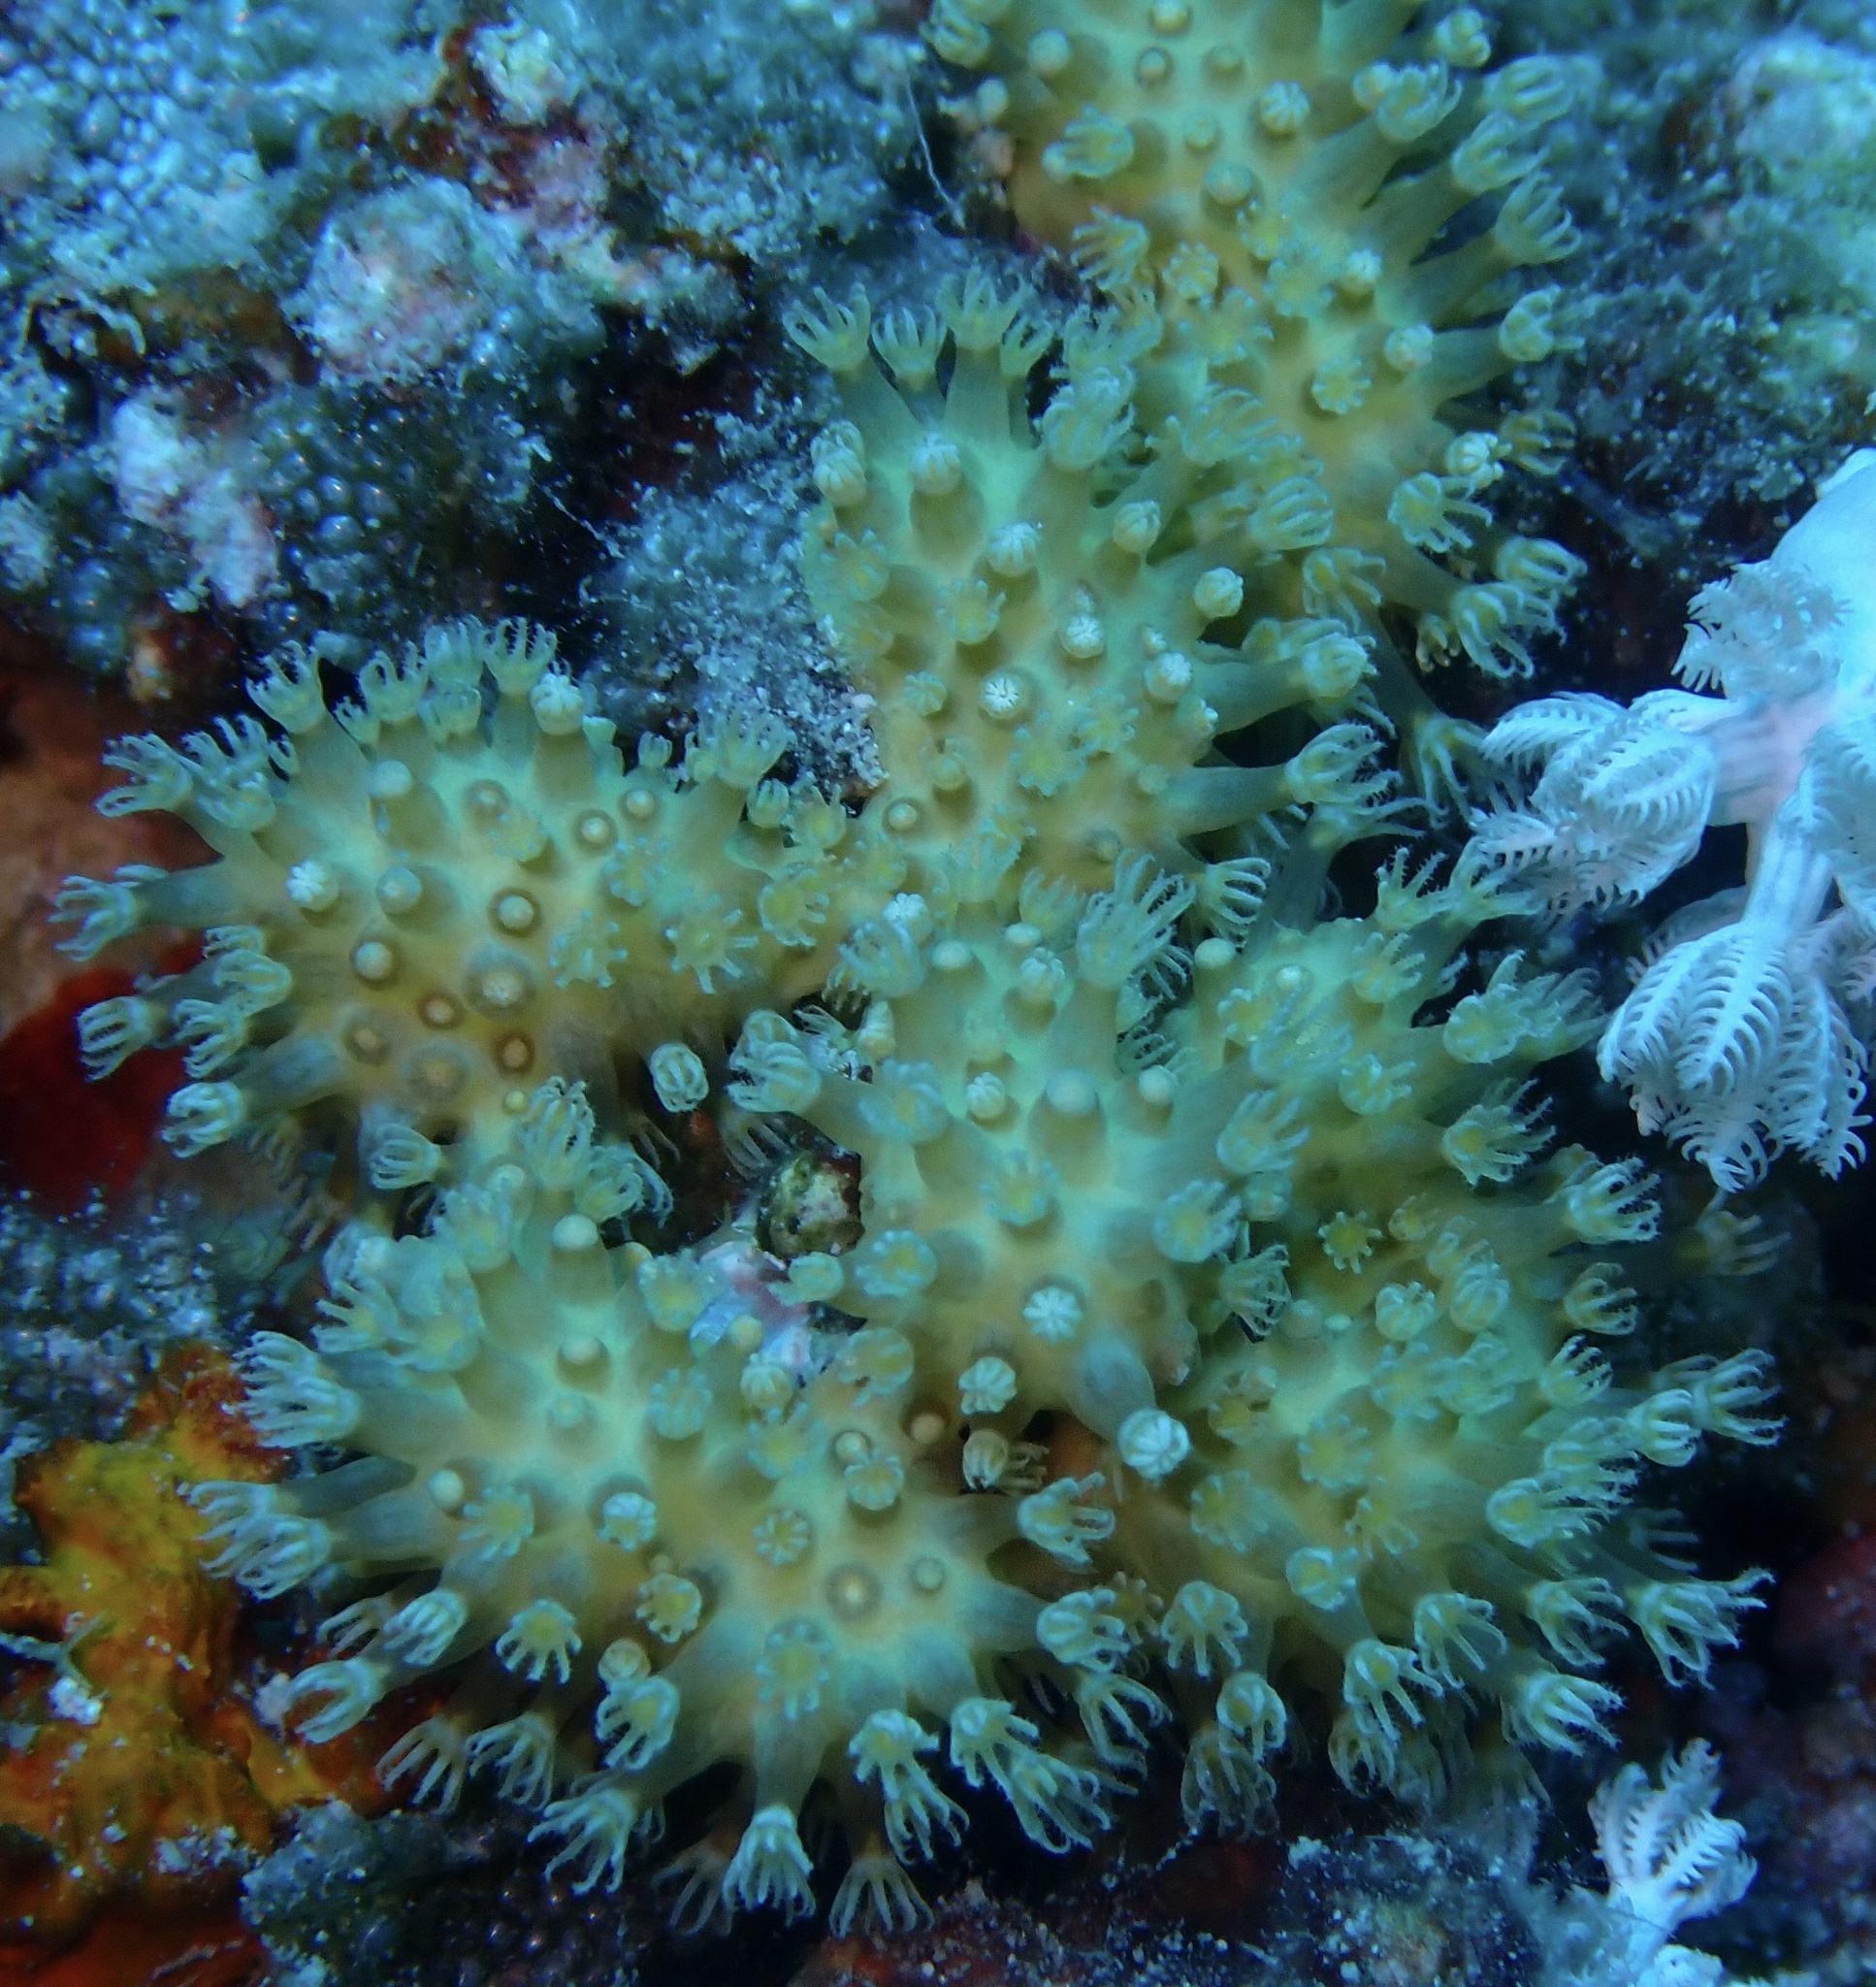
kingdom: Animalia
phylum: Cnidaria
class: Anthozoa
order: Malacalcyonacea
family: Lemnaliadae
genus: Rhytisma
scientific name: Rhytisma fulvum
